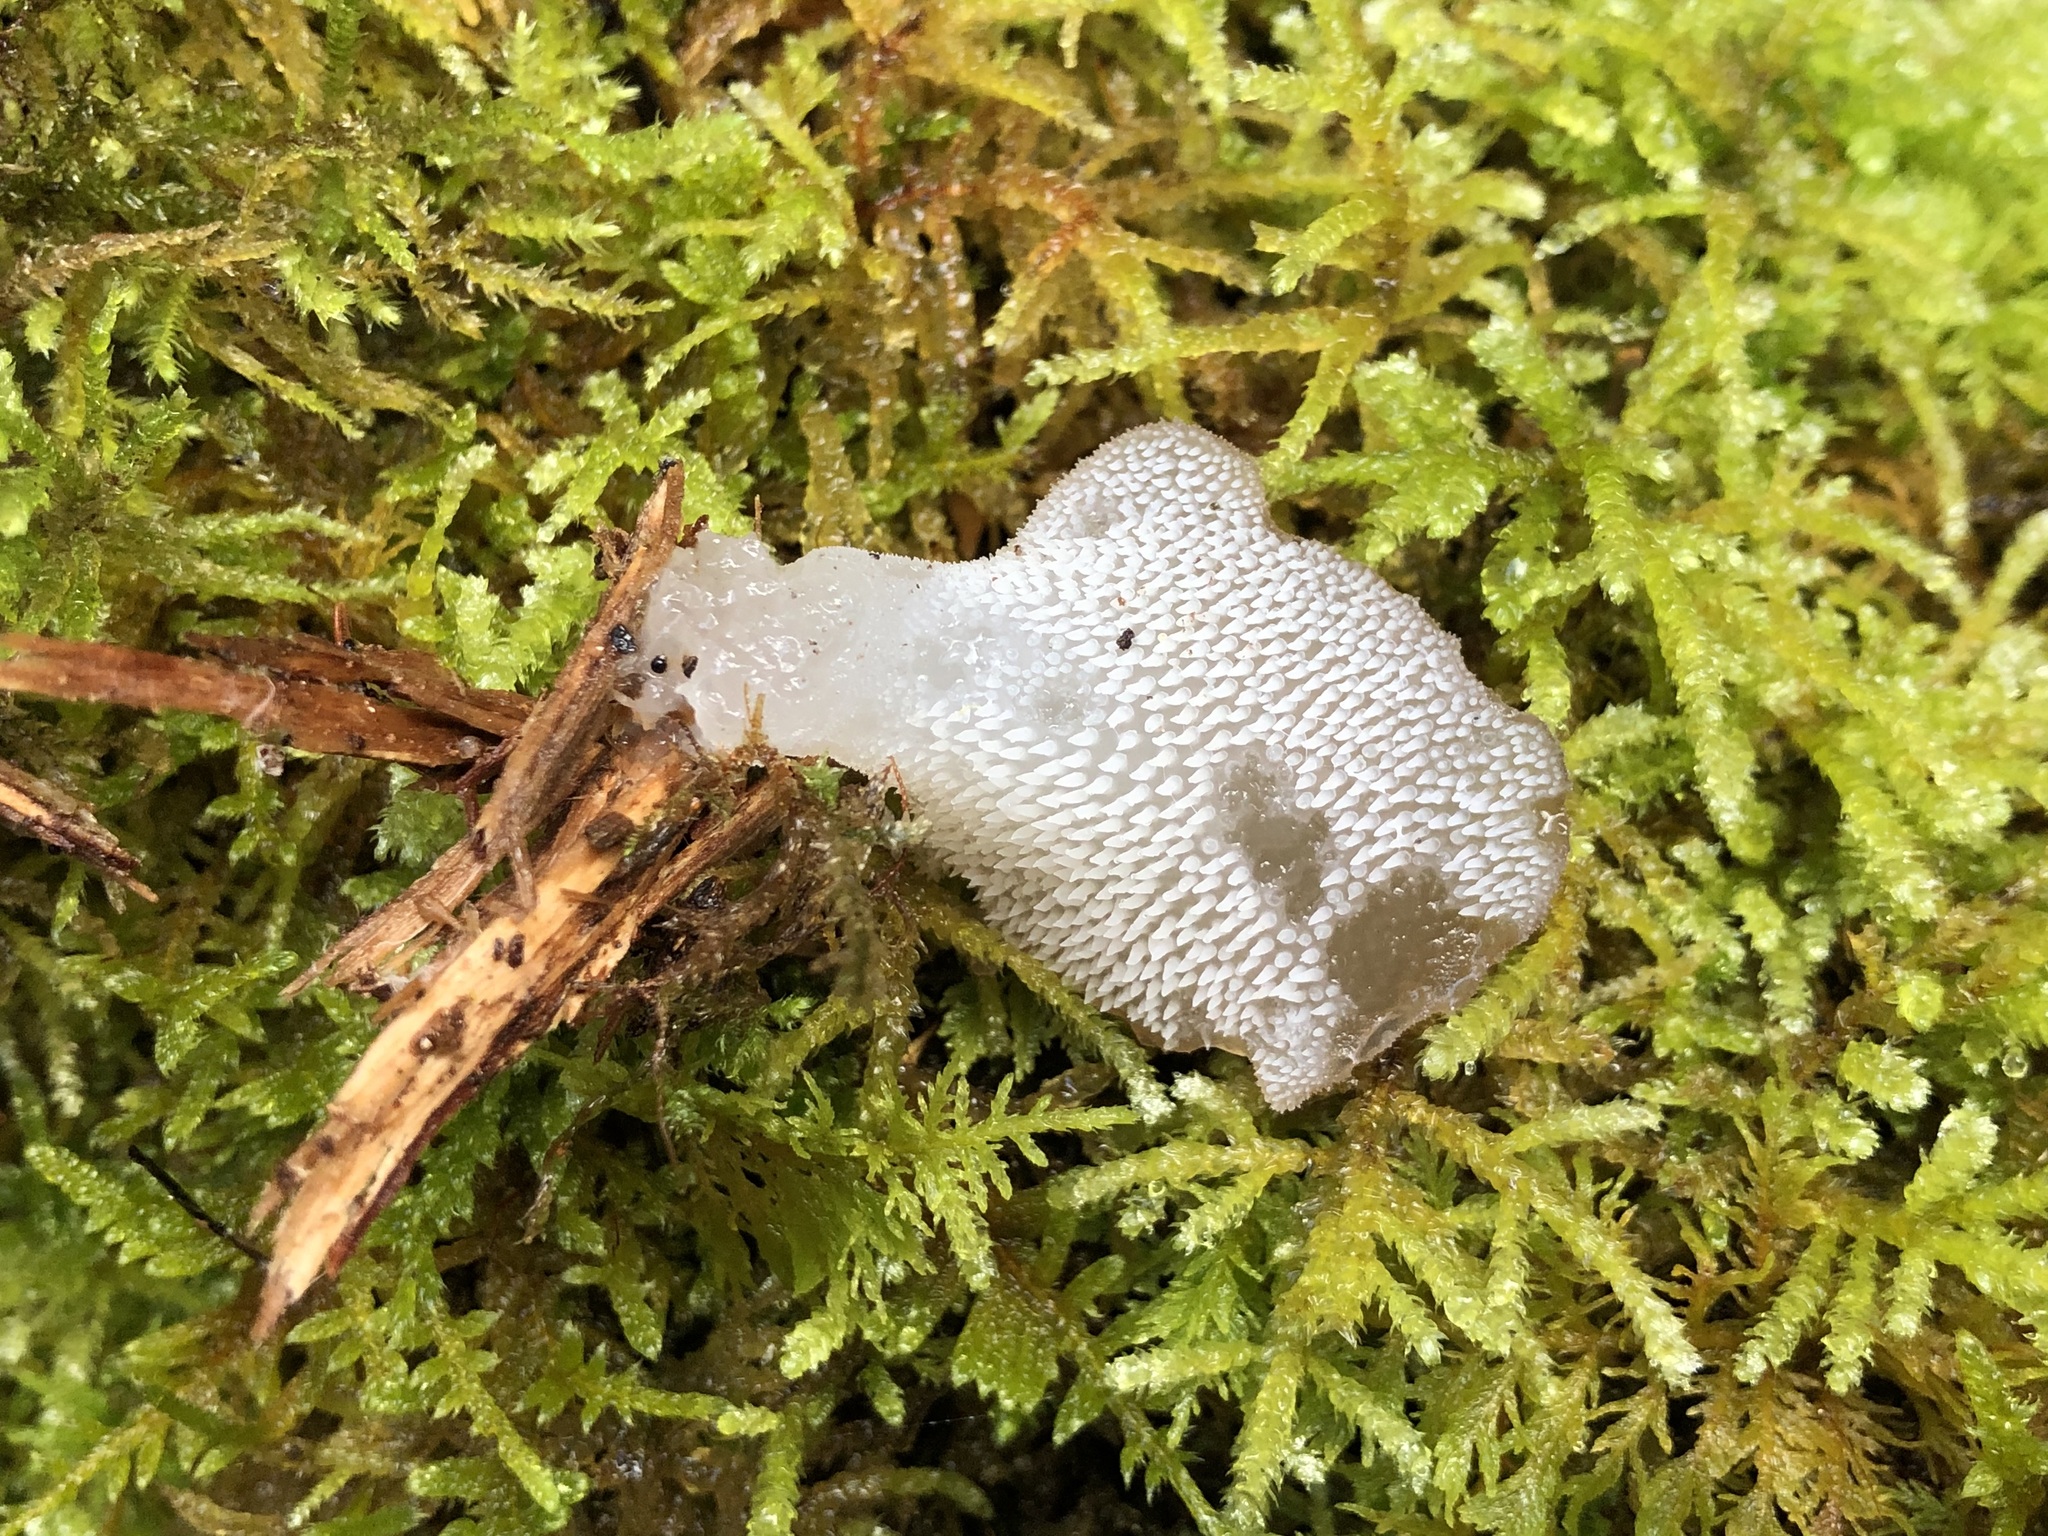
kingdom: Fungi
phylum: Basidiomycota
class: Agaricomycetes
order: Auriculariales
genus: Pseudohydnum
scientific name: Pseudohydnum gelatinosum
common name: Jelly tongue
